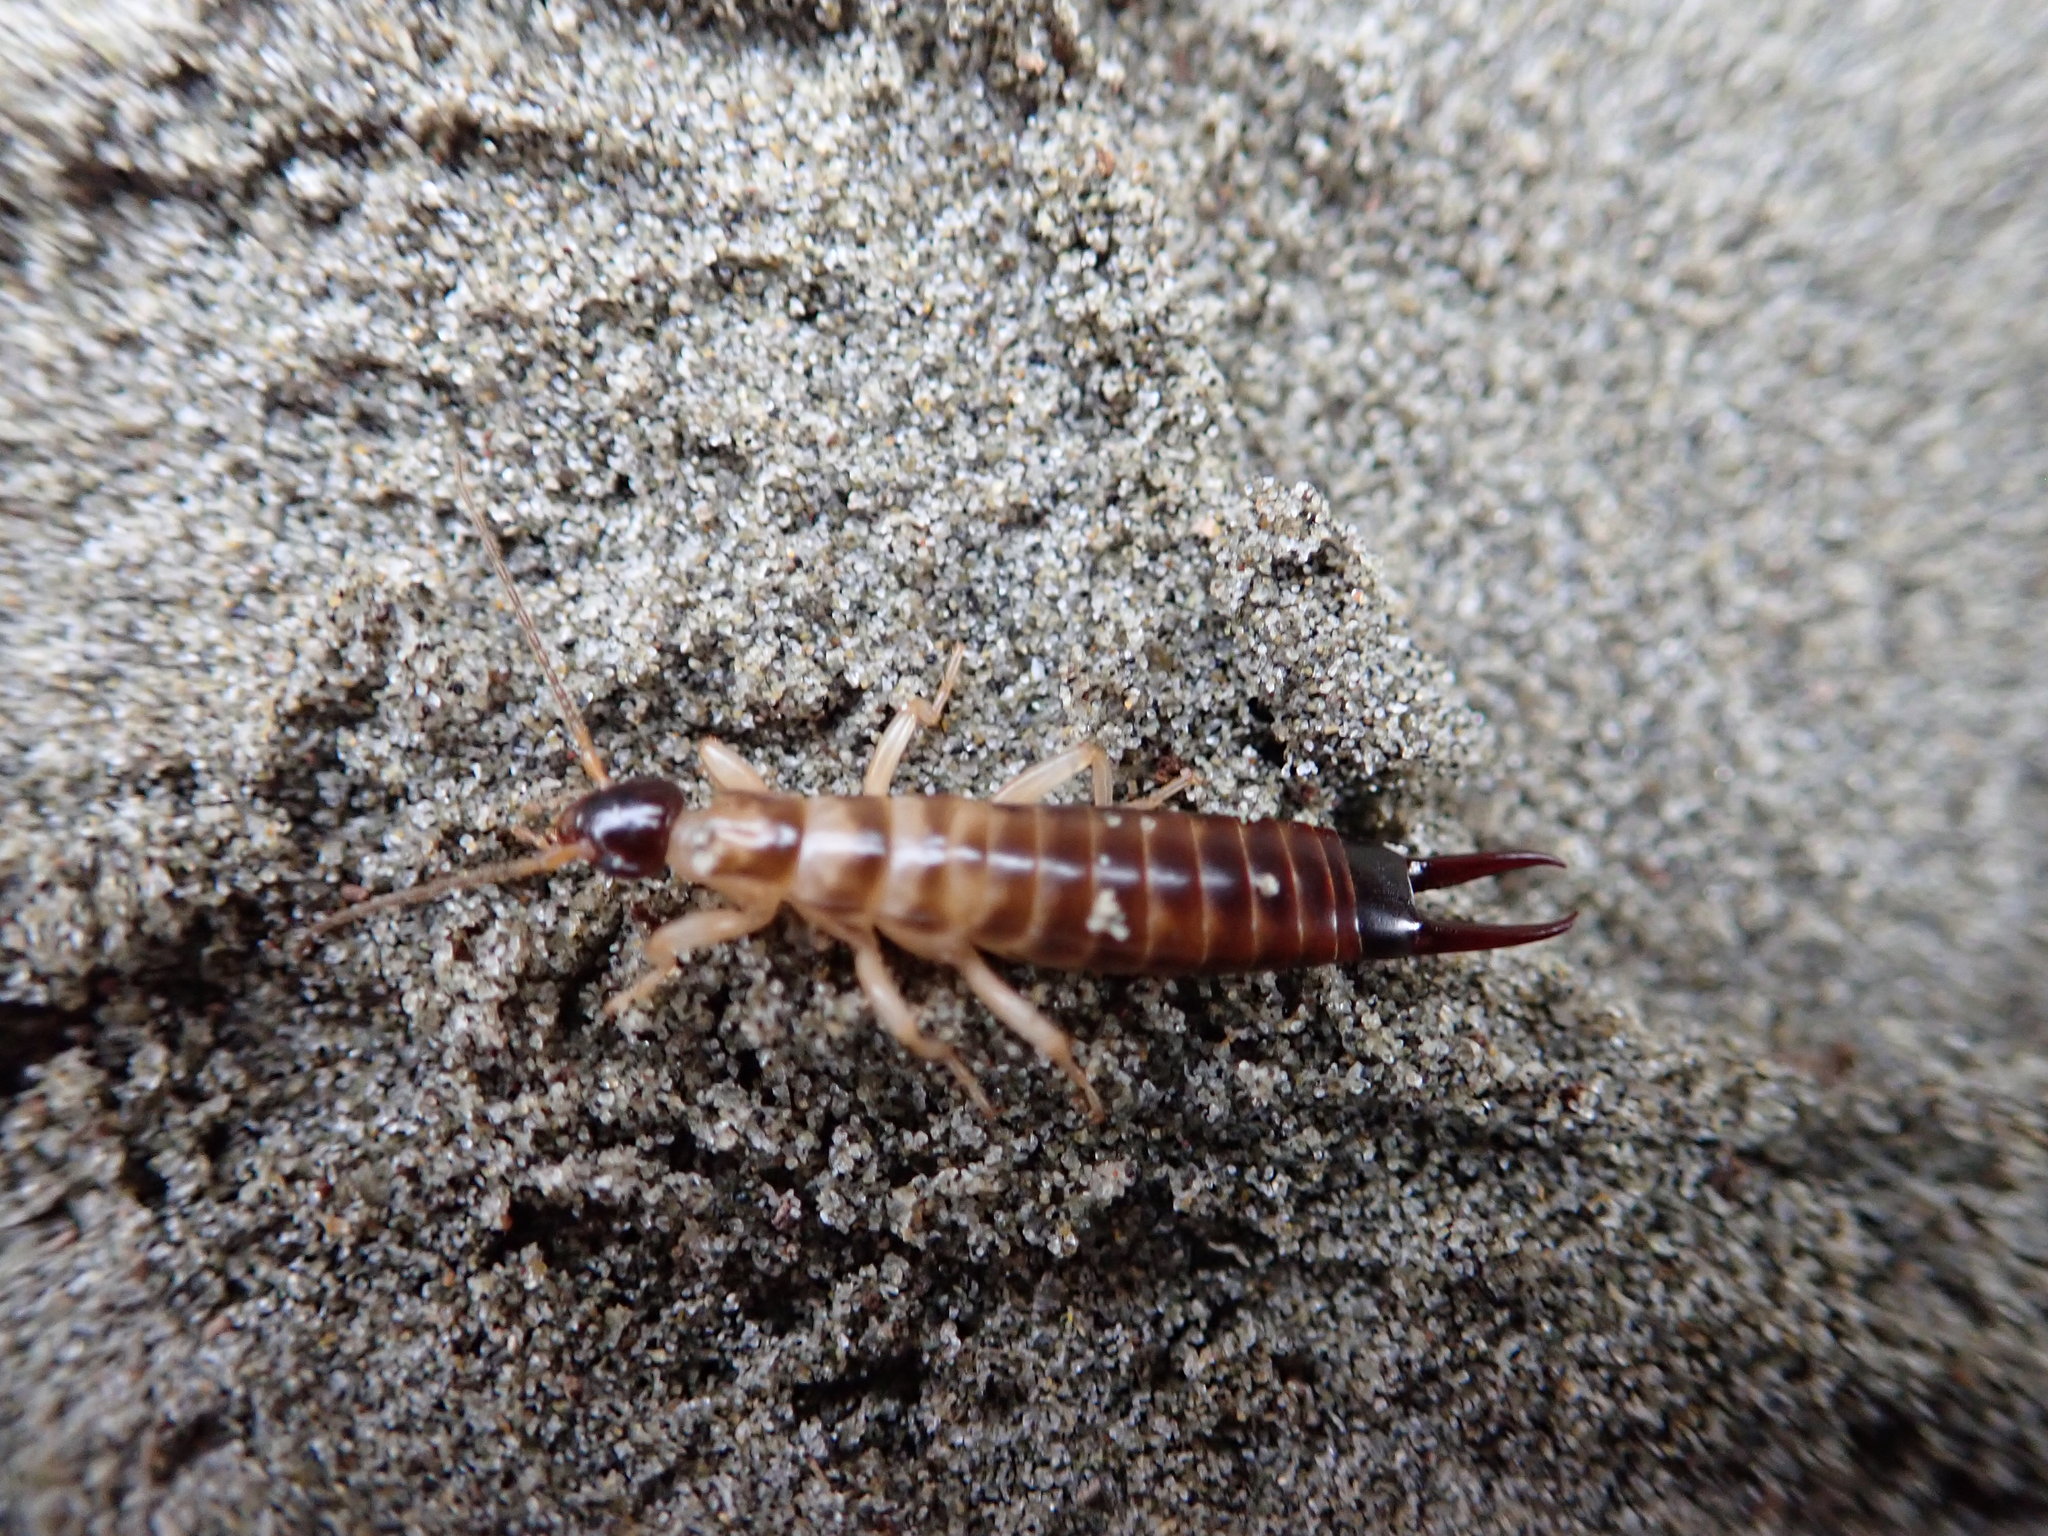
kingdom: Animalia
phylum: Arthropoda
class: Insecta
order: Dermaptera
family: Anisolabididae
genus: Anisolabis
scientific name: Anisolabis littorea
